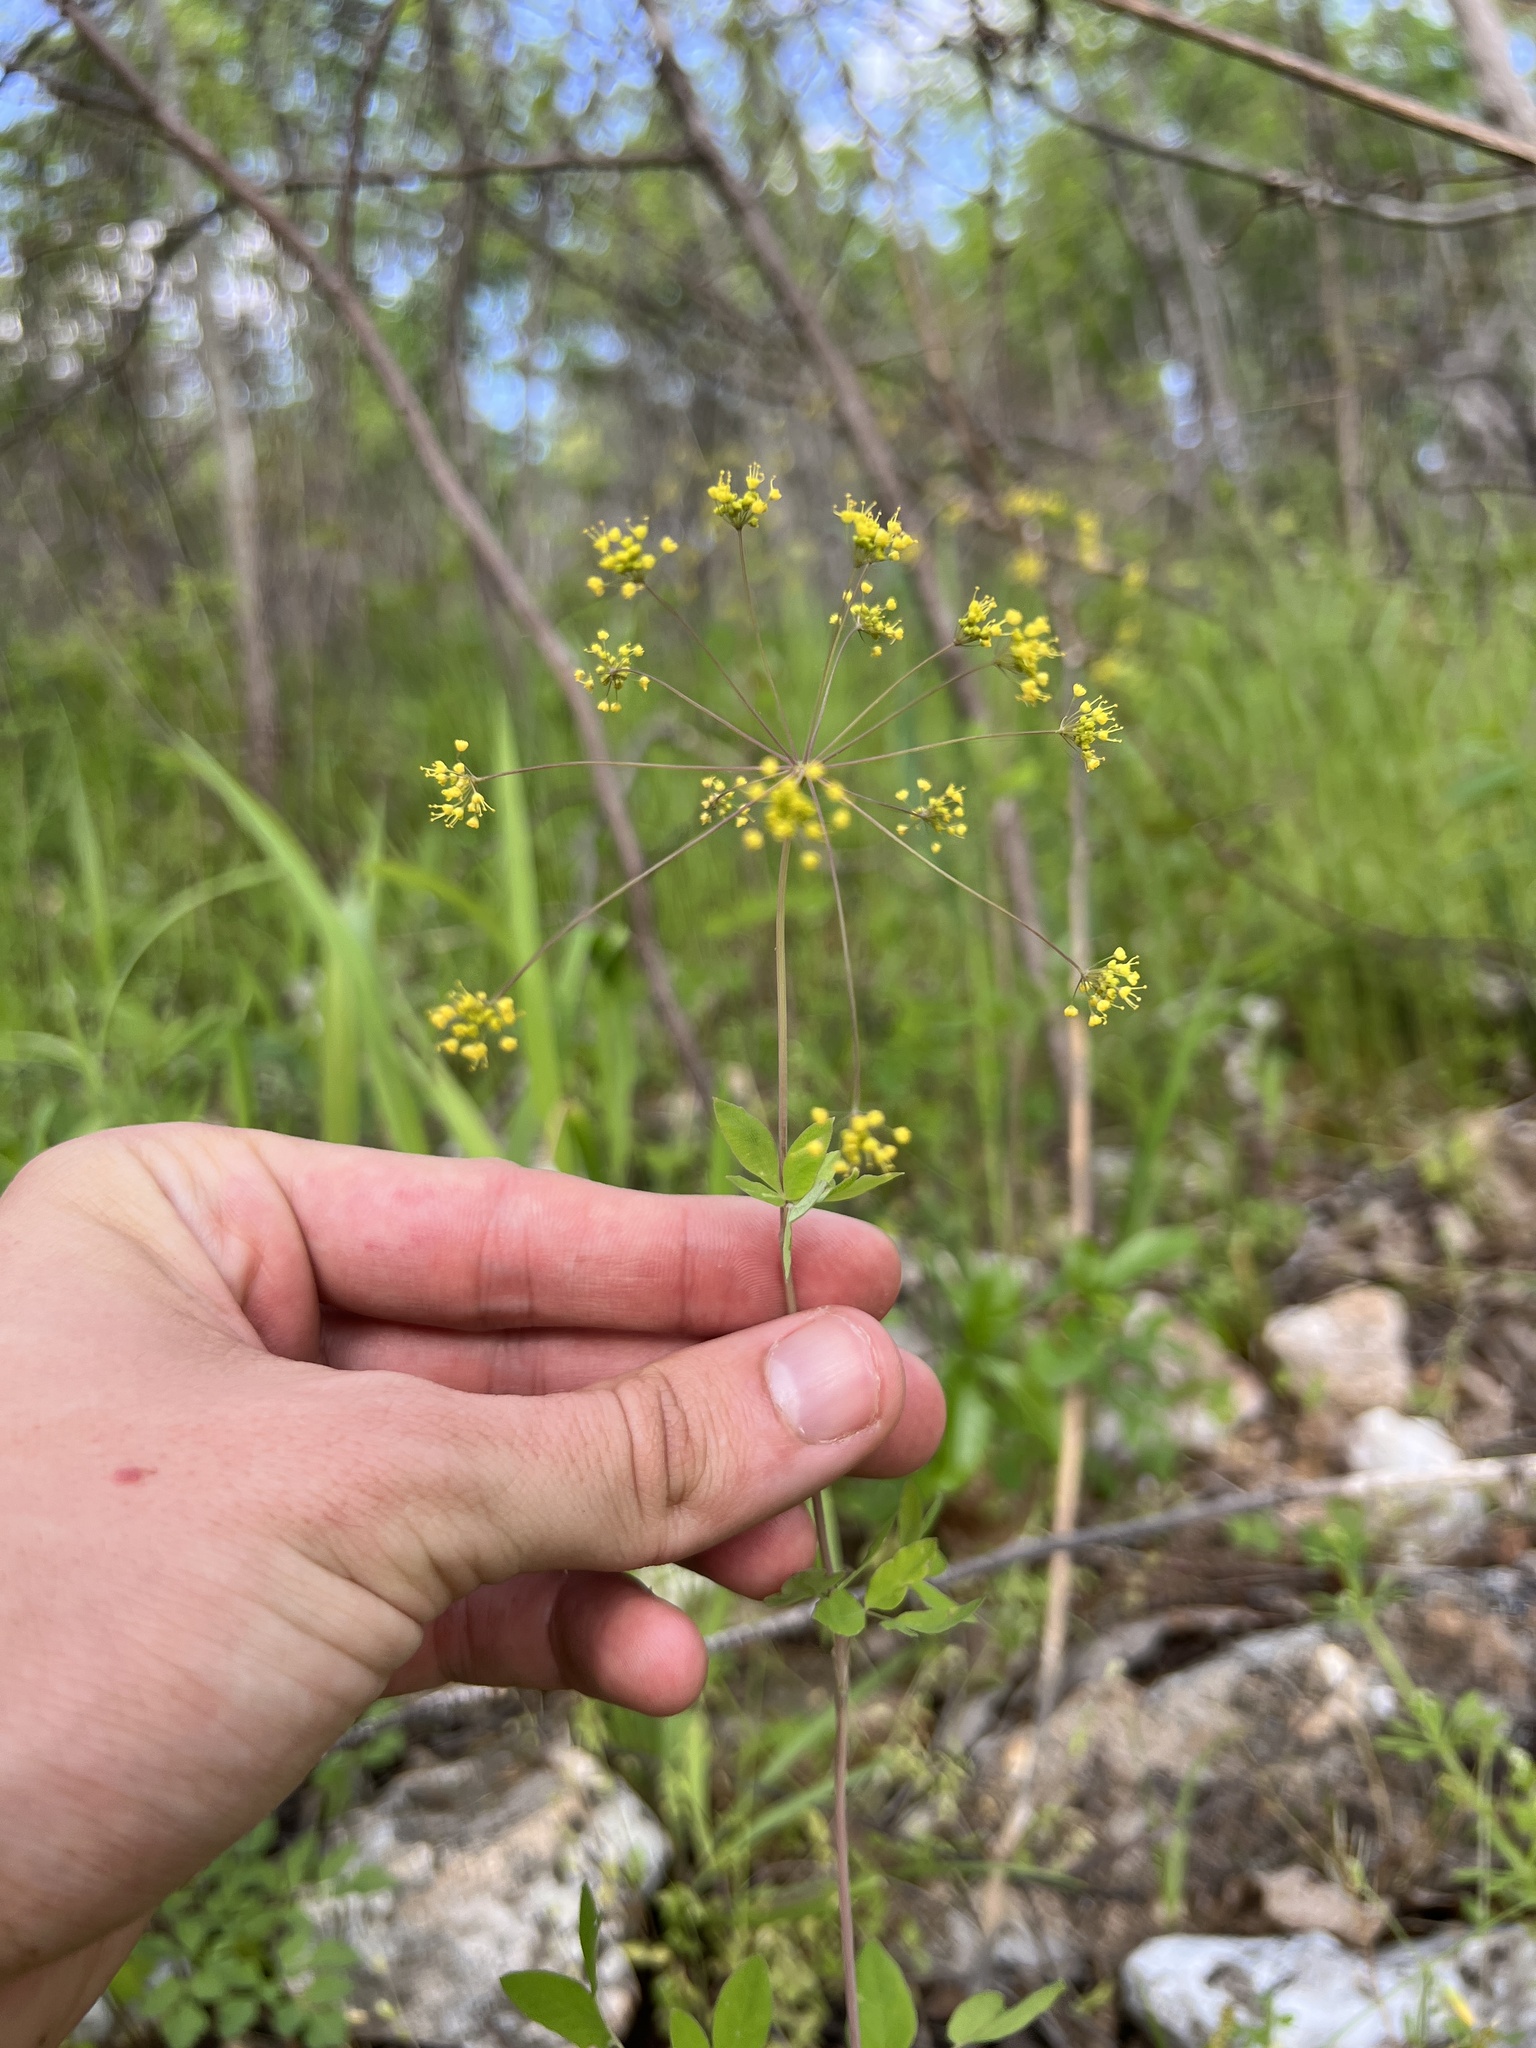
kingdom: Plantae
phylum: Tracheophyta
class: Magnoliopsida
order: Apiales
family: Apiaceae
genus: Taenidia
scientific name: Taenidia integerrima
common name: Golden alexander
